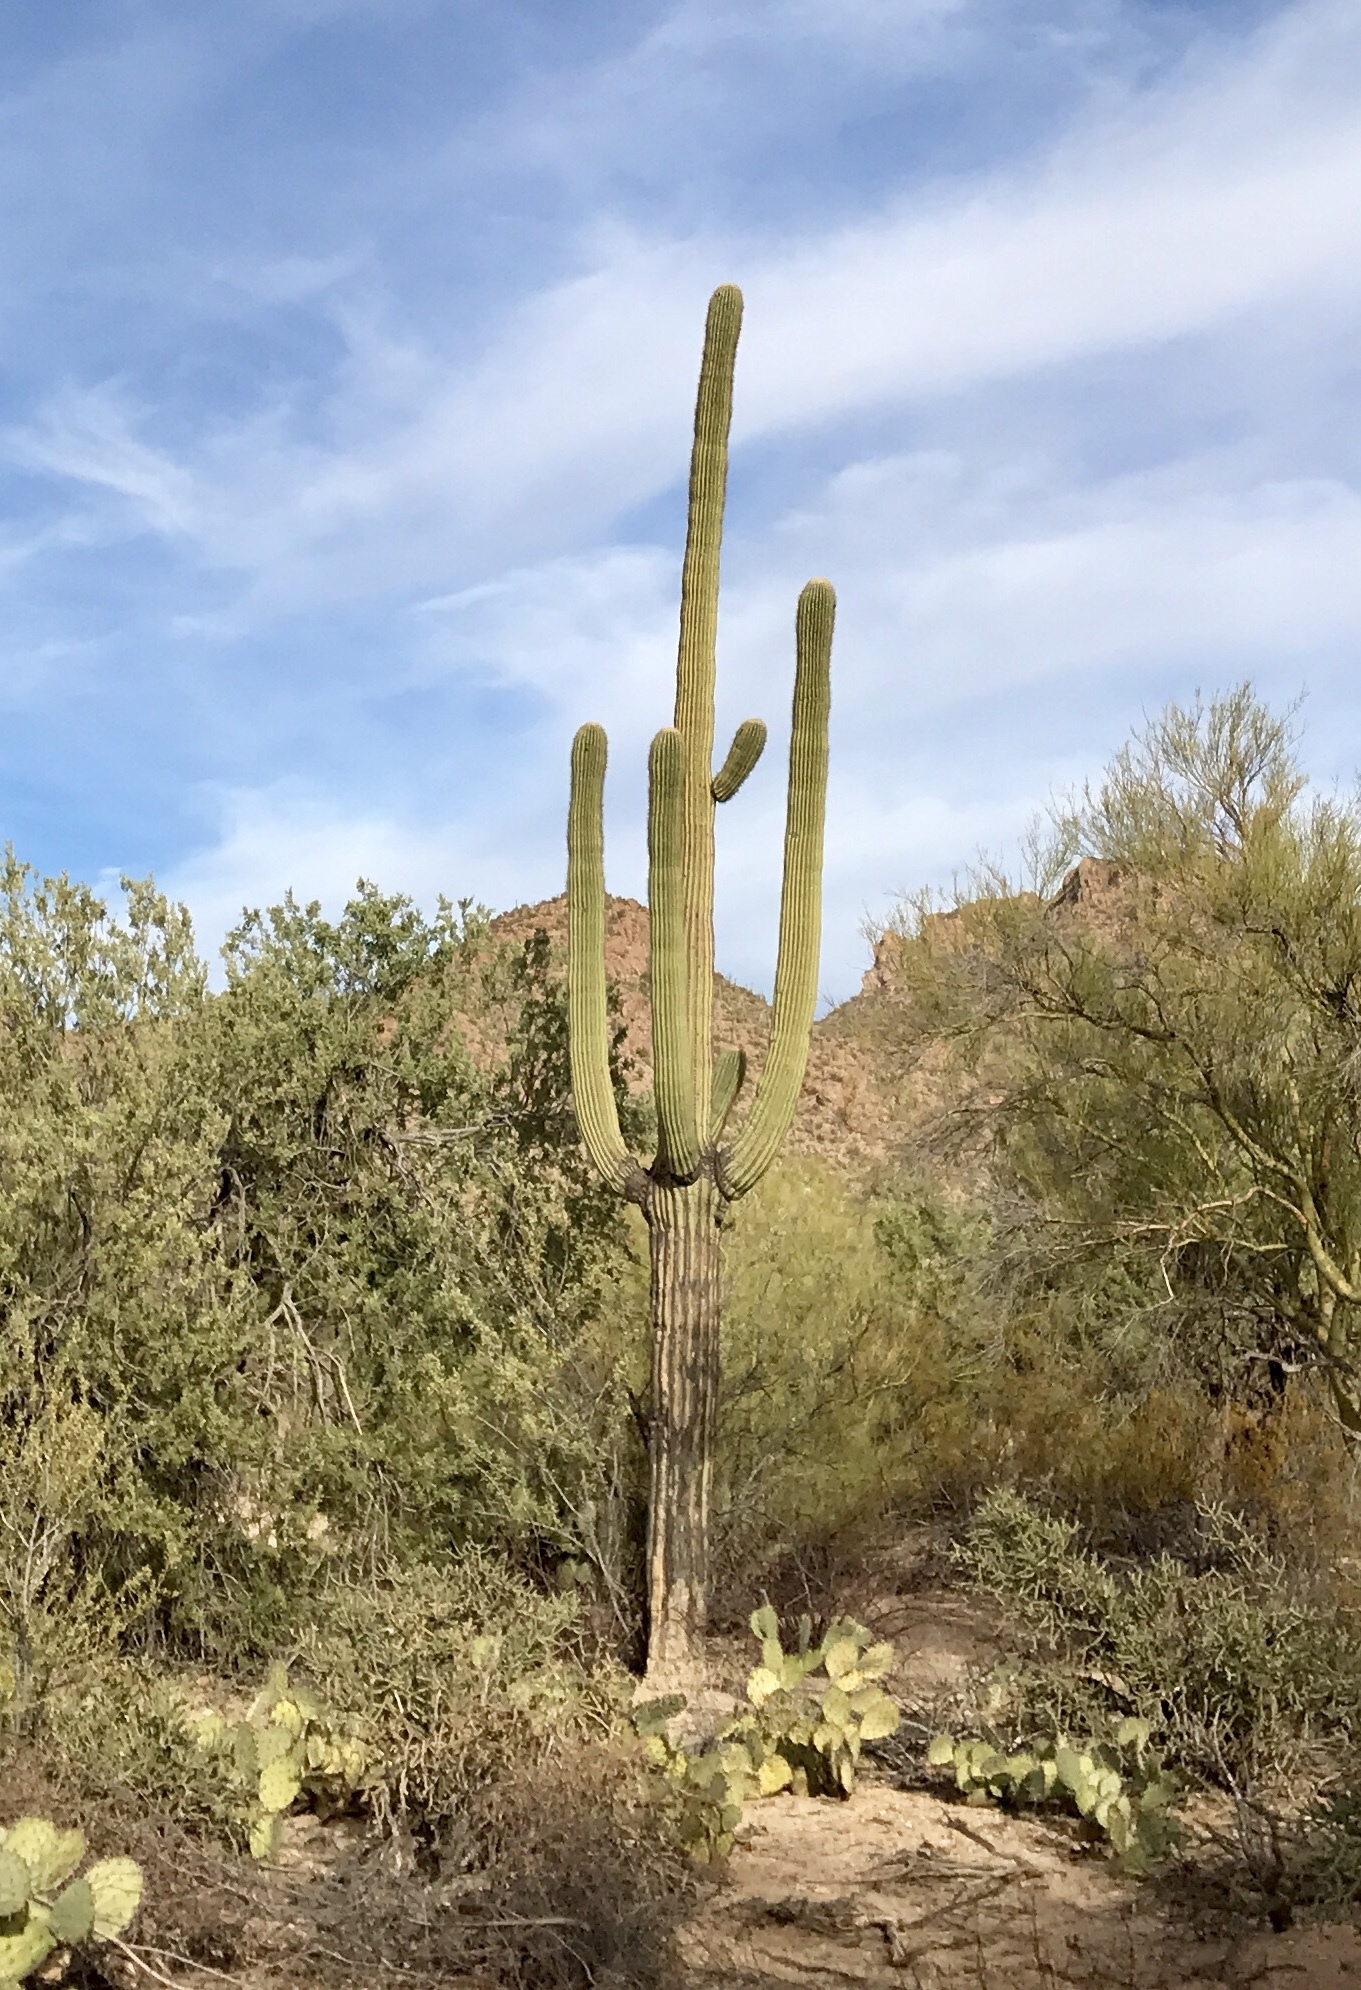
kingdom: Plantae
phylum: Tracheophyta
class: Magnoliopsida
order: Caryophyllales
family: Cactaceae
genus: Carnegiea
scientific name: Carnegiea gigantea
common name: Saguaro
